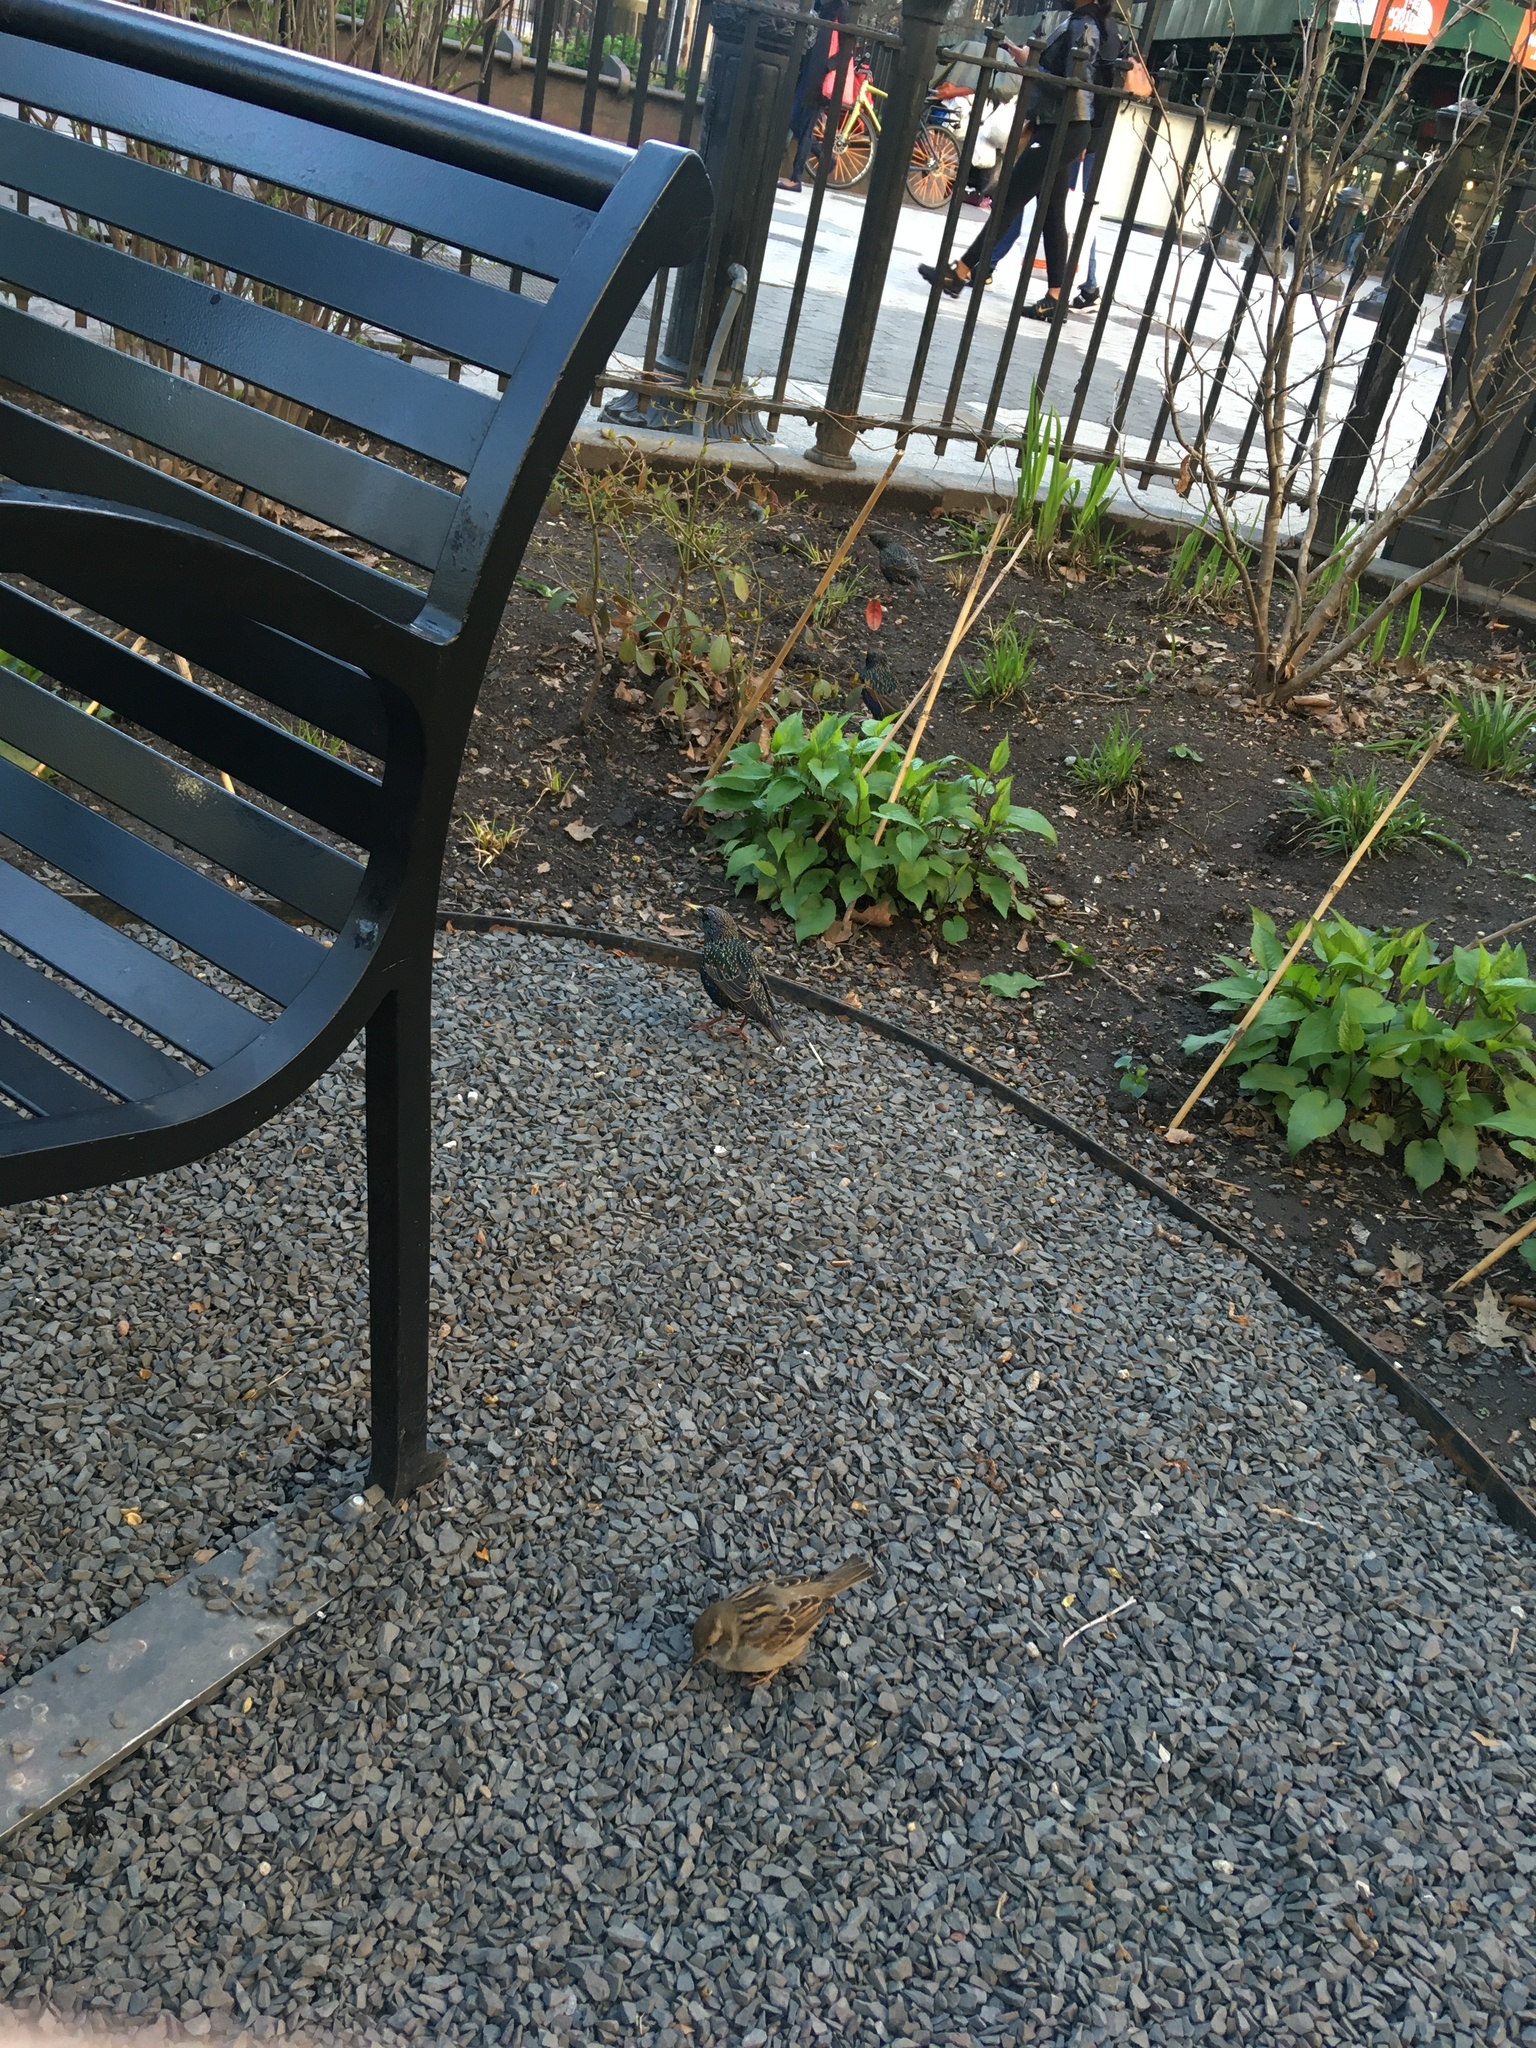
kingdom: Animalia
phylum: Chordata
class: Aves
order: Passeriformes
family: Sturnidae
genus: Sturnus
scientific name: Sturnus vulgaris
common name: Common starling
